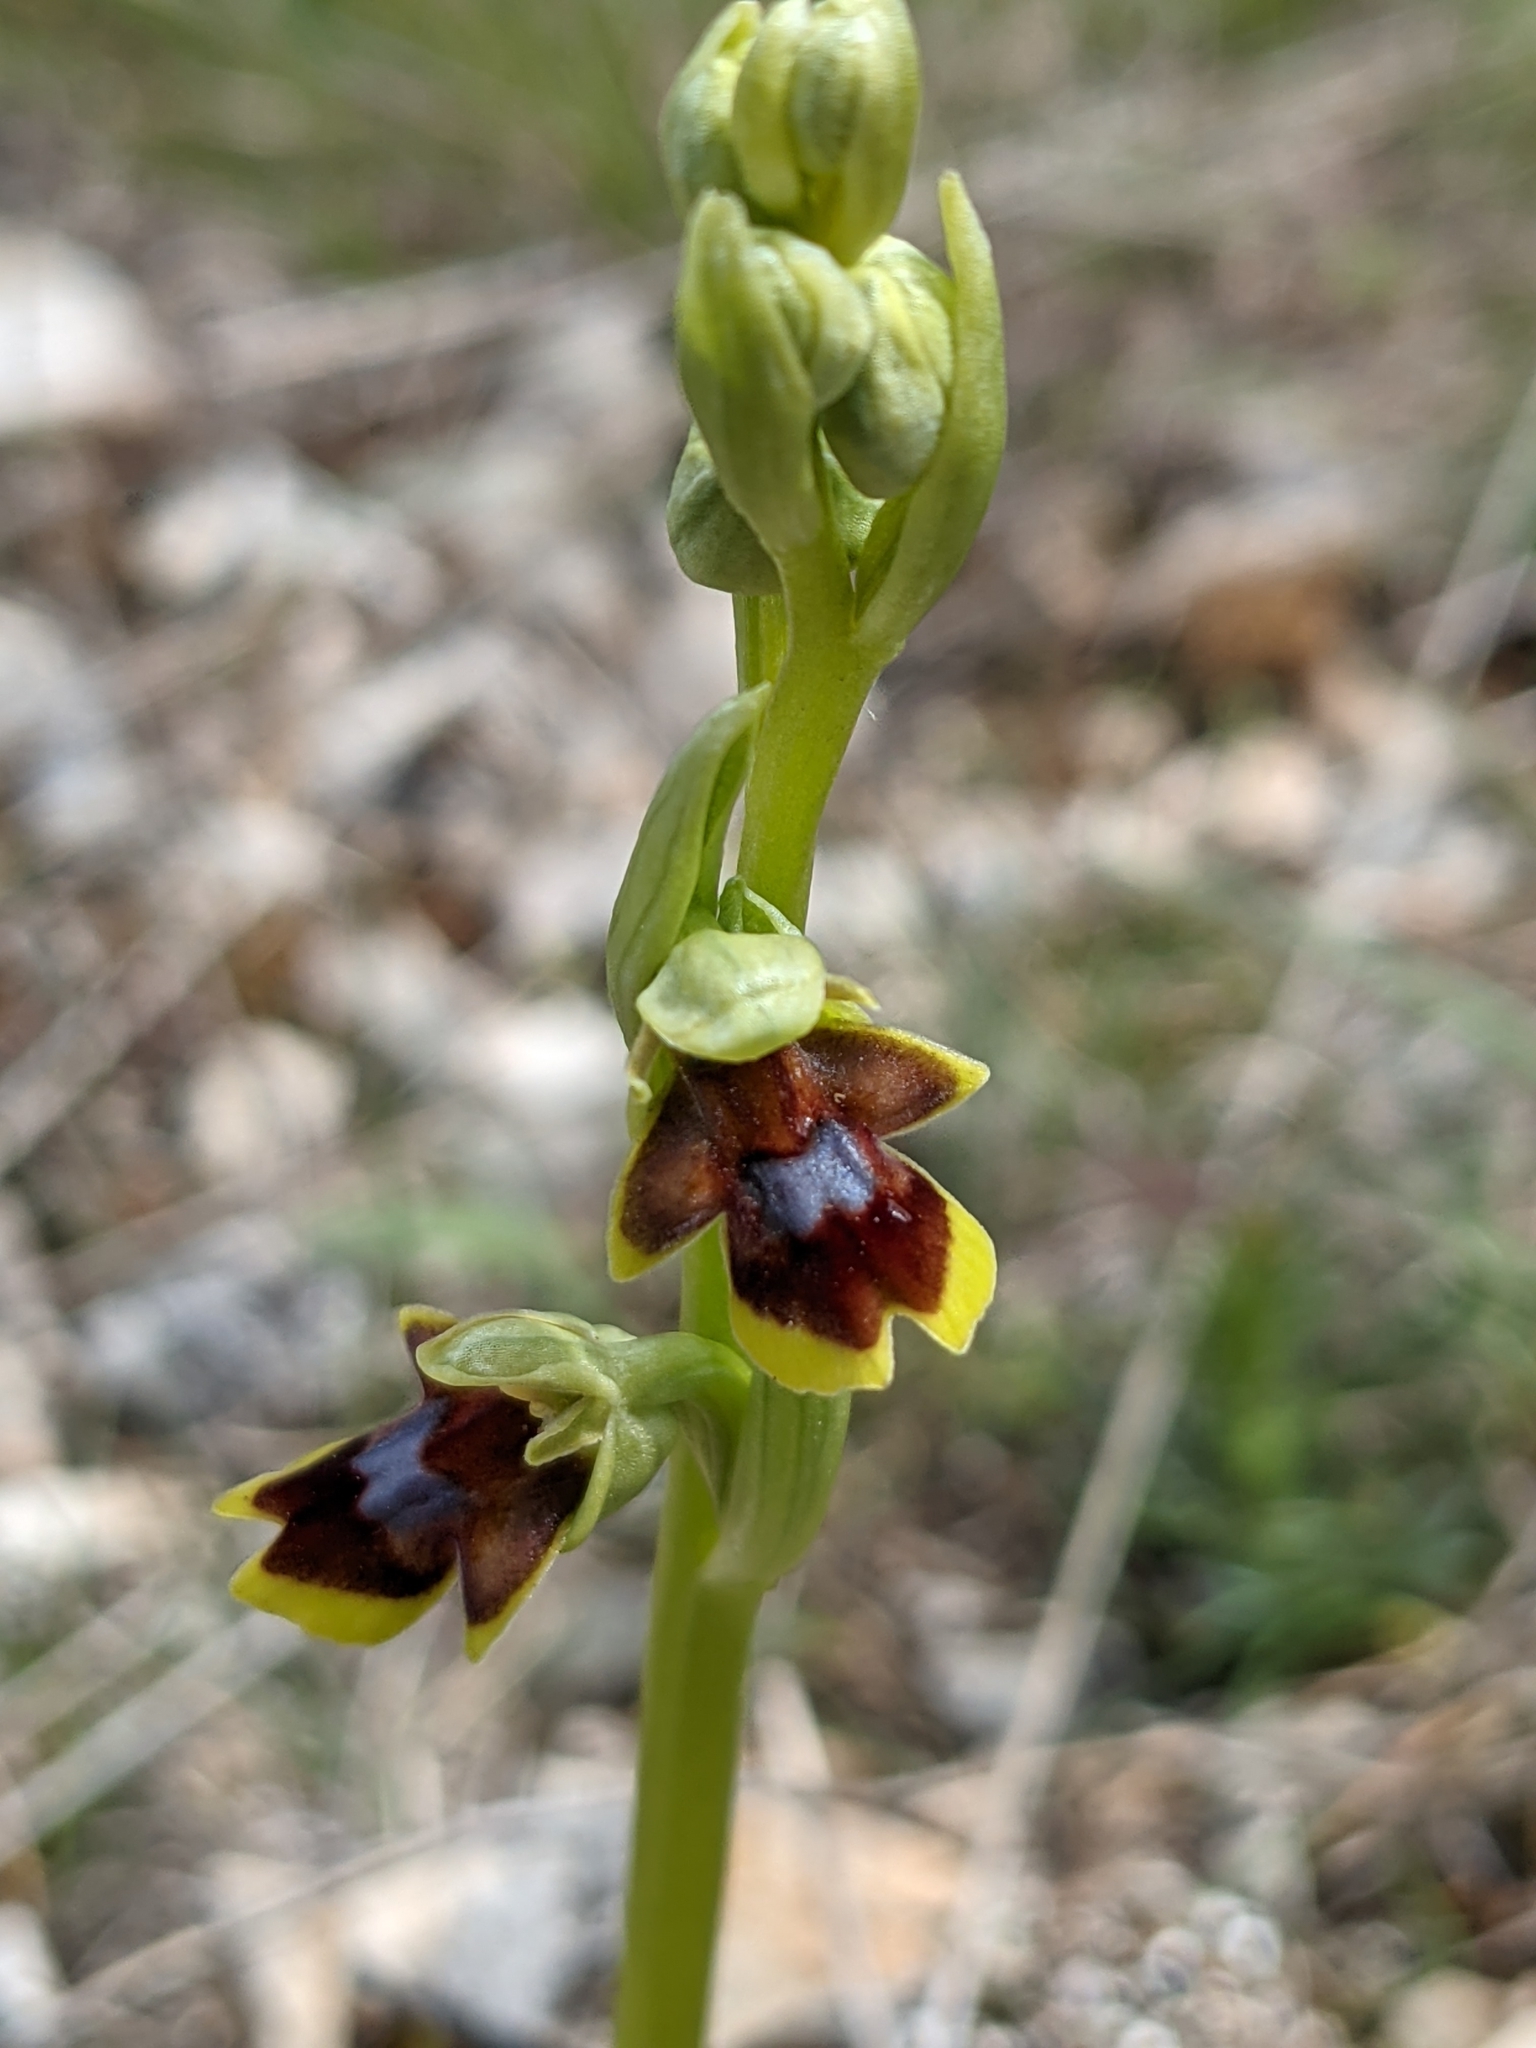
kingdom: Plantae
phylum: Tracheophyta
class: Liliopsida
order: Asparagales
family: Orchidaceae
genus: Ophrys
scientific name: Ophrys insectifera
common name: Fly orchid
